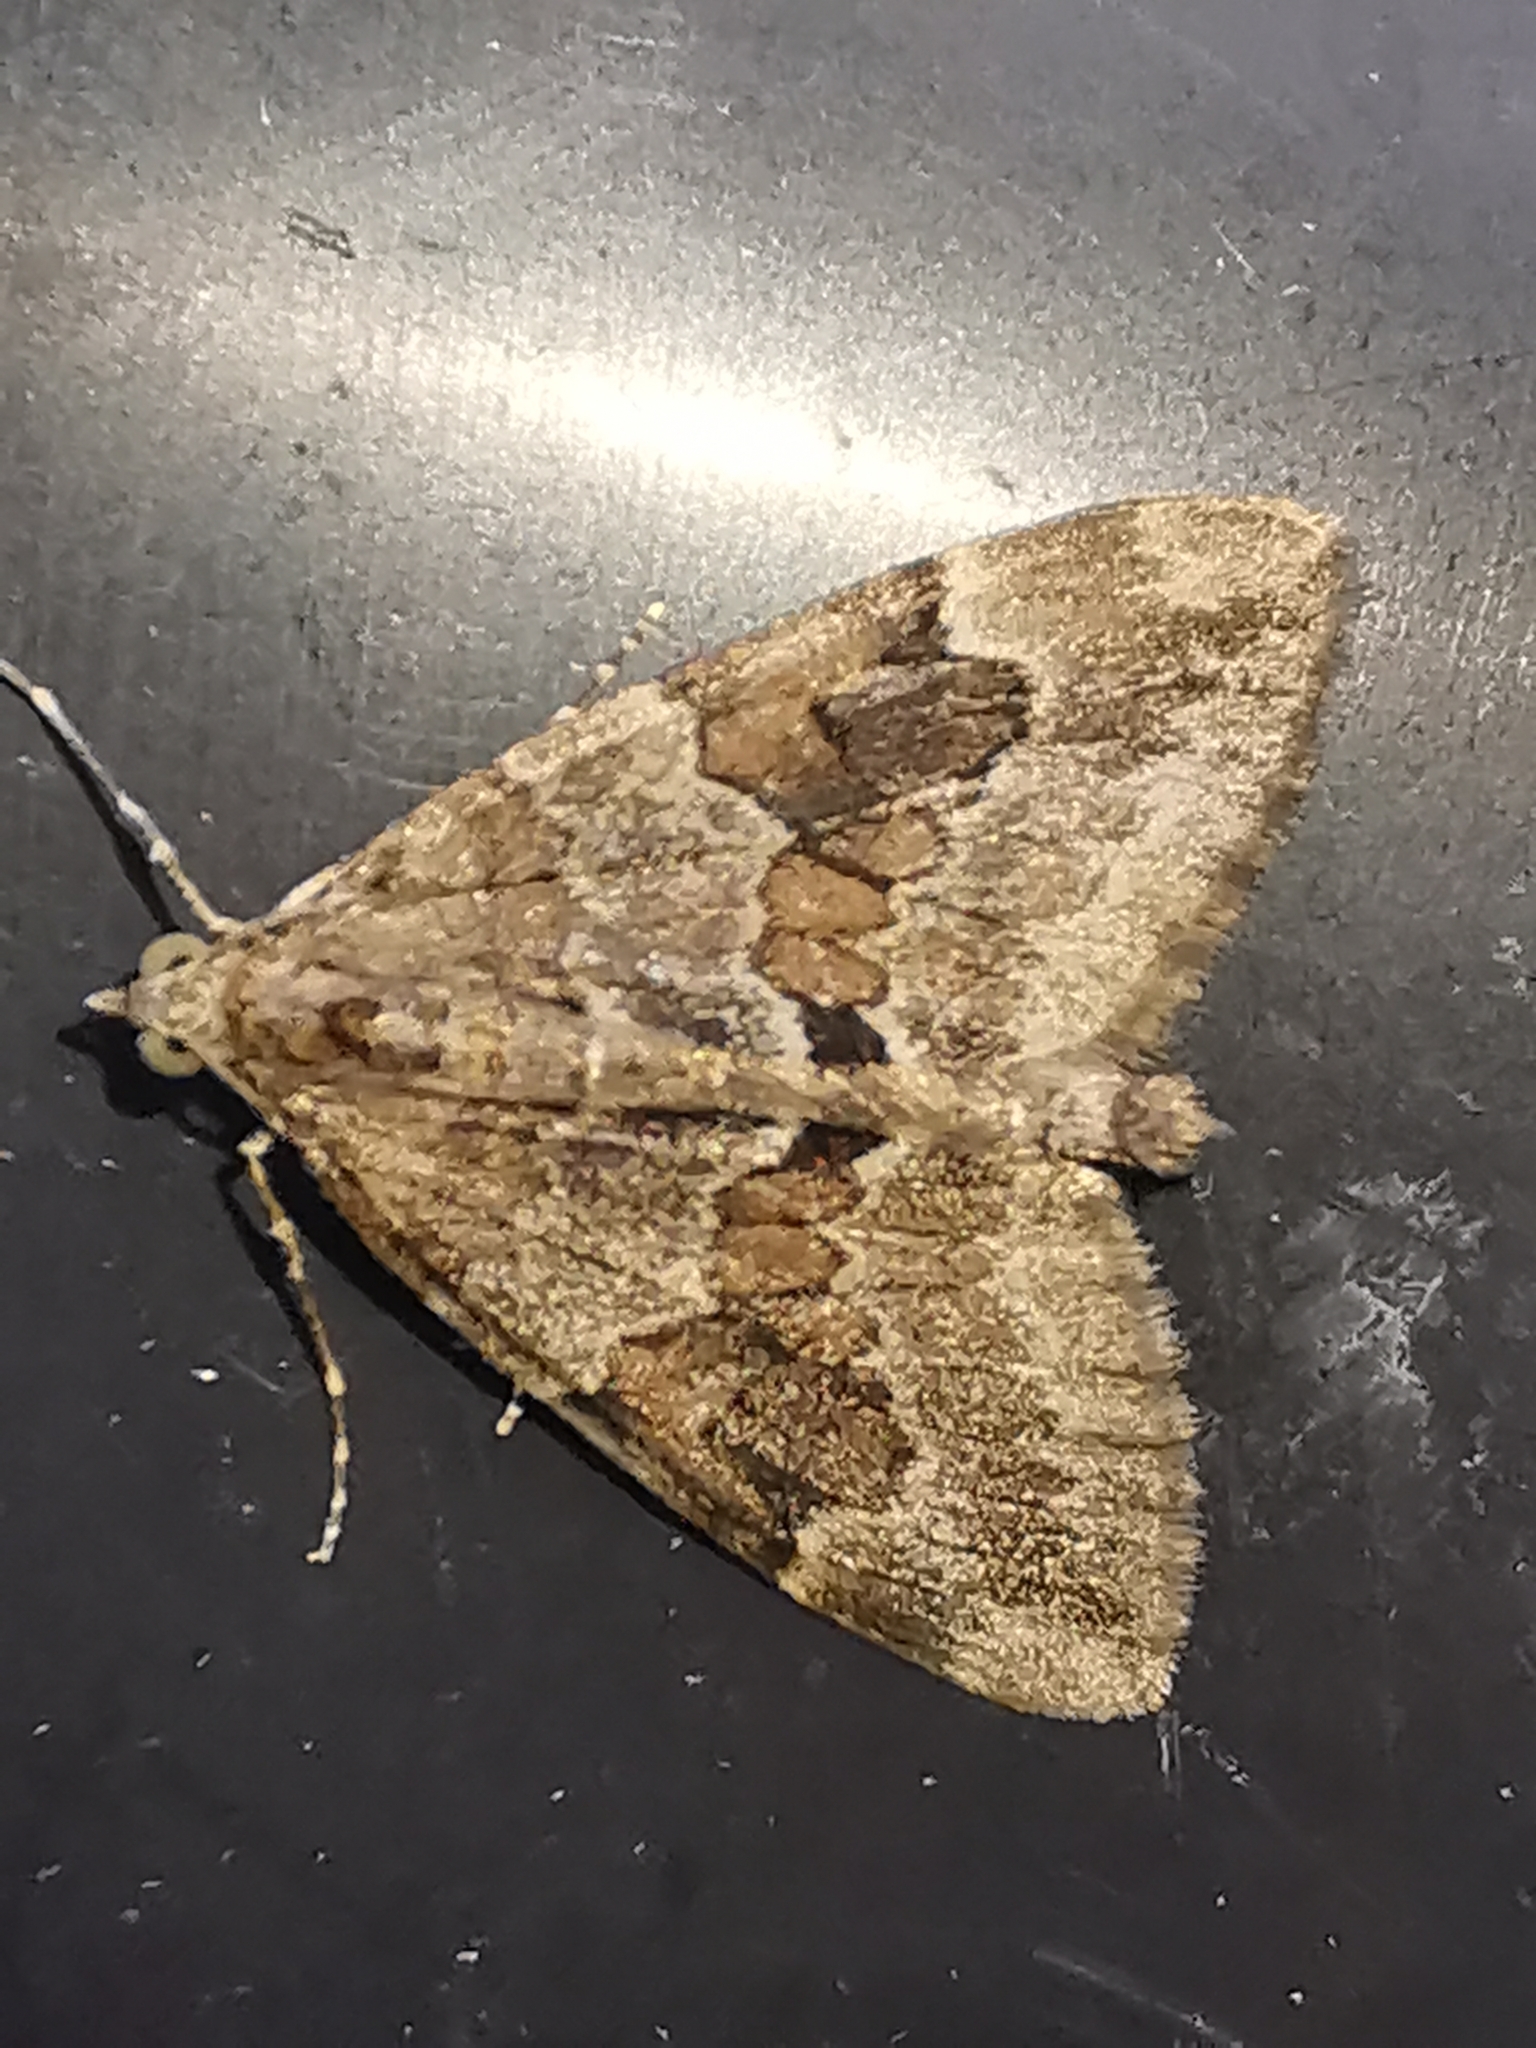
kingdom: Animalia
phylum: Arthropoda
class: Insecta
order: Lepidoptera
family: Geometridae
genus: Thera
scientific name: Thera obeliscata
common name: Grey pine carpet
